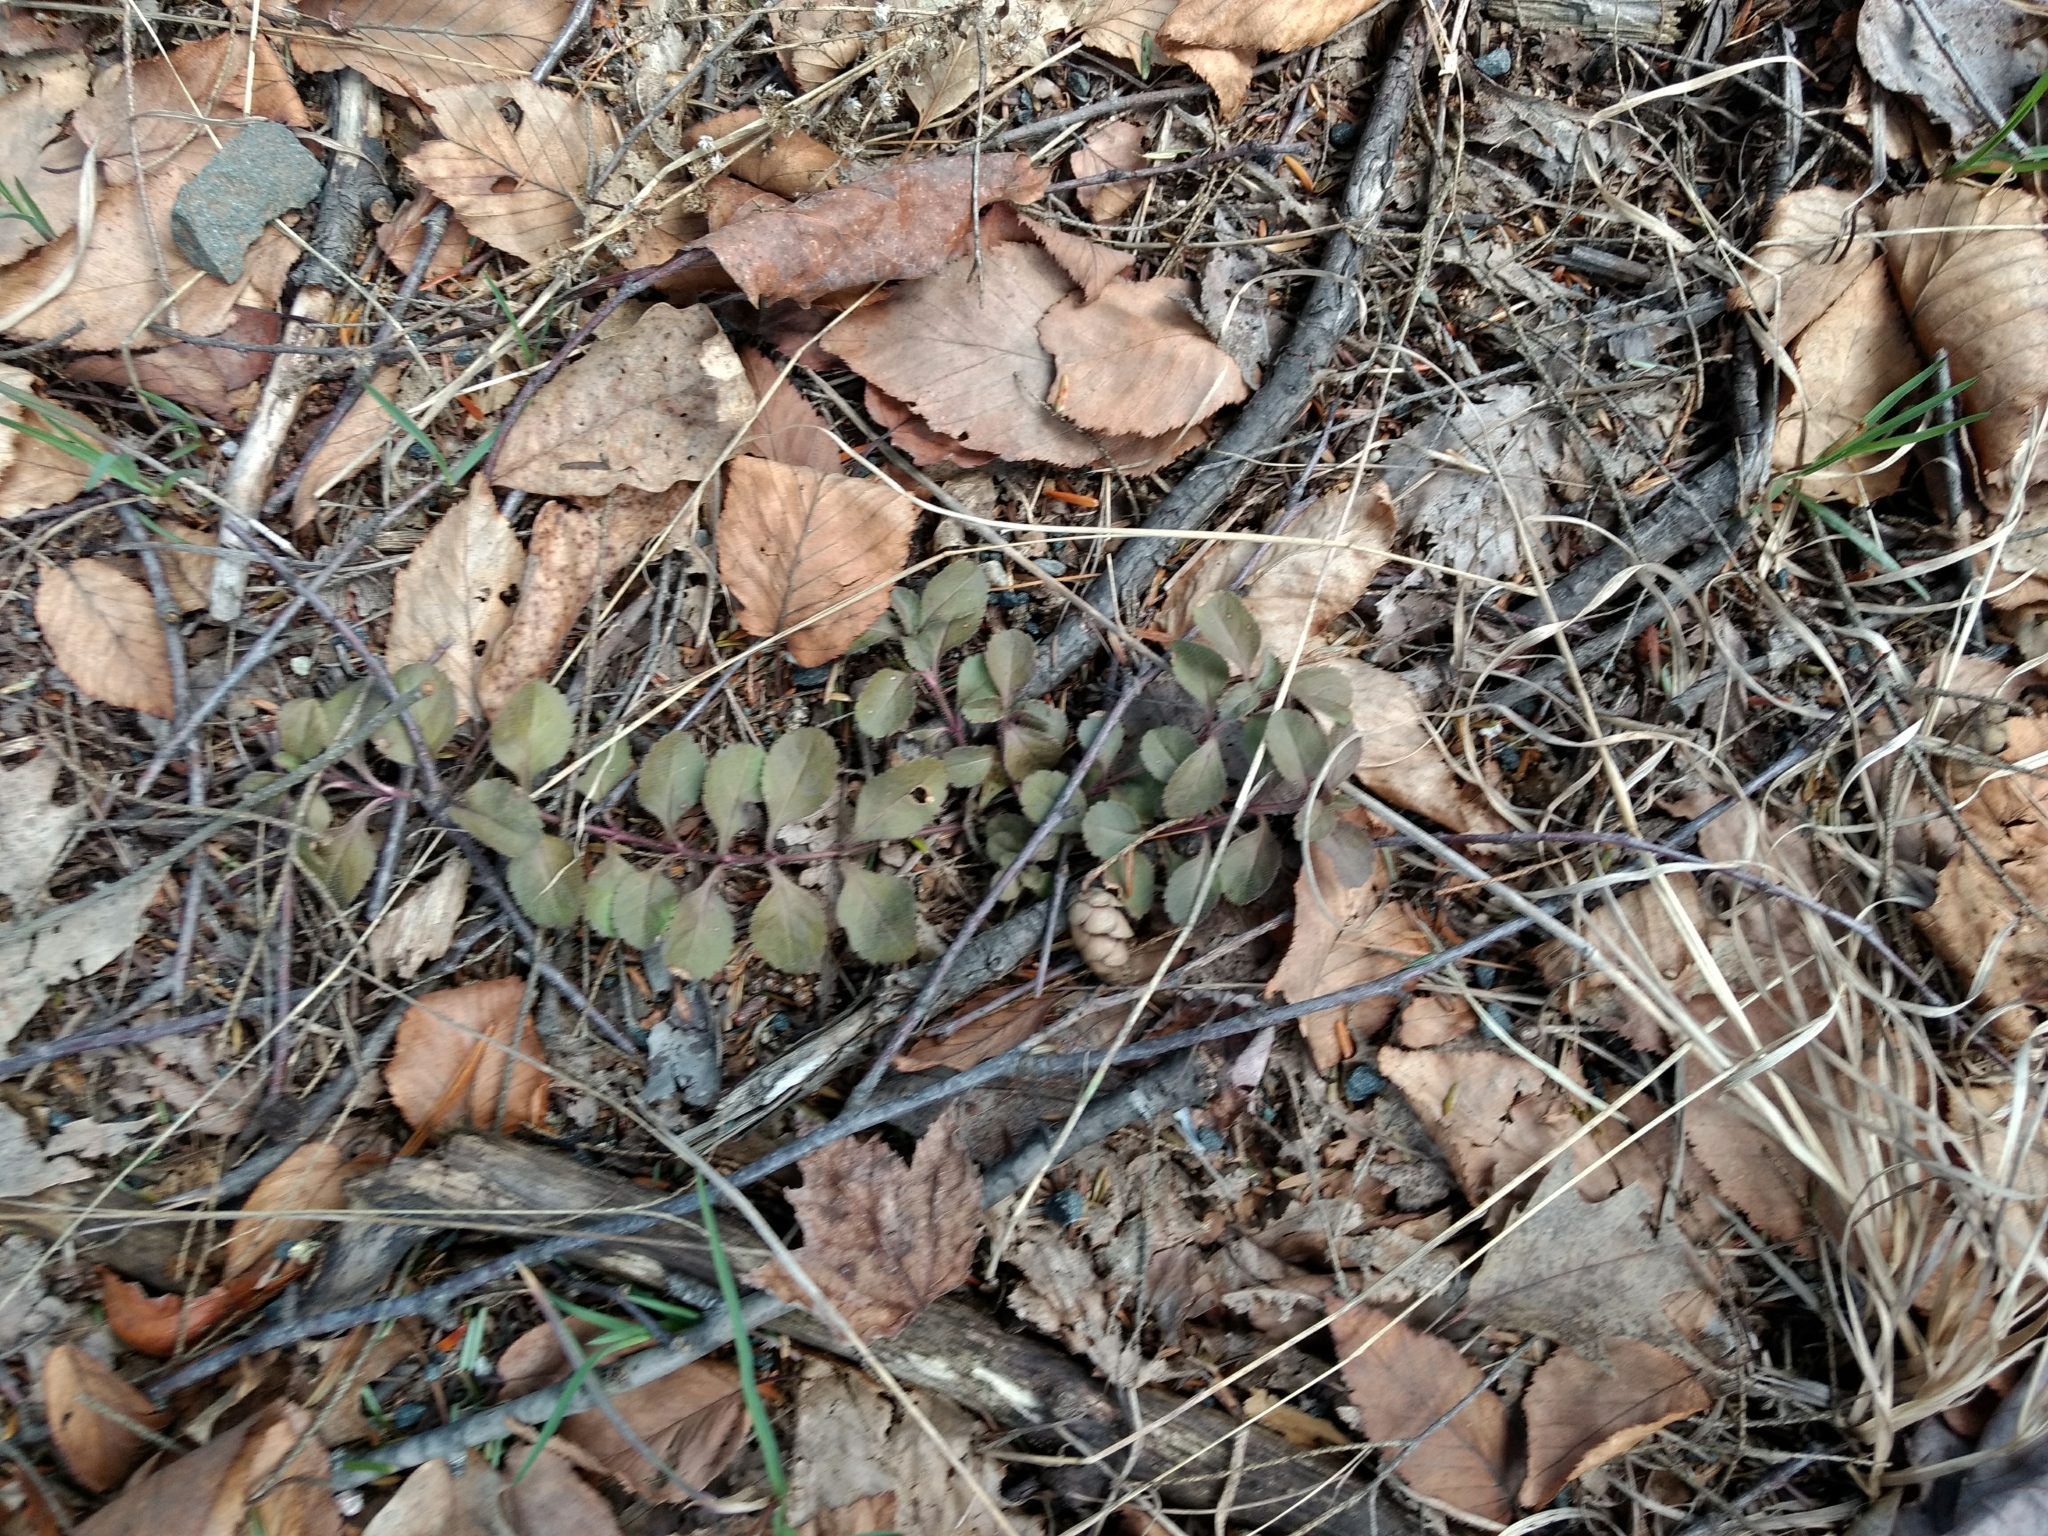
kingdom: Plantae
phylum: Tracheophyta
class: Magnoliopsida
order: Lamiales
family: Plantaginaceae
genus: Veronica
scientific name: Veronica officinalis
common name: Common speedwell
